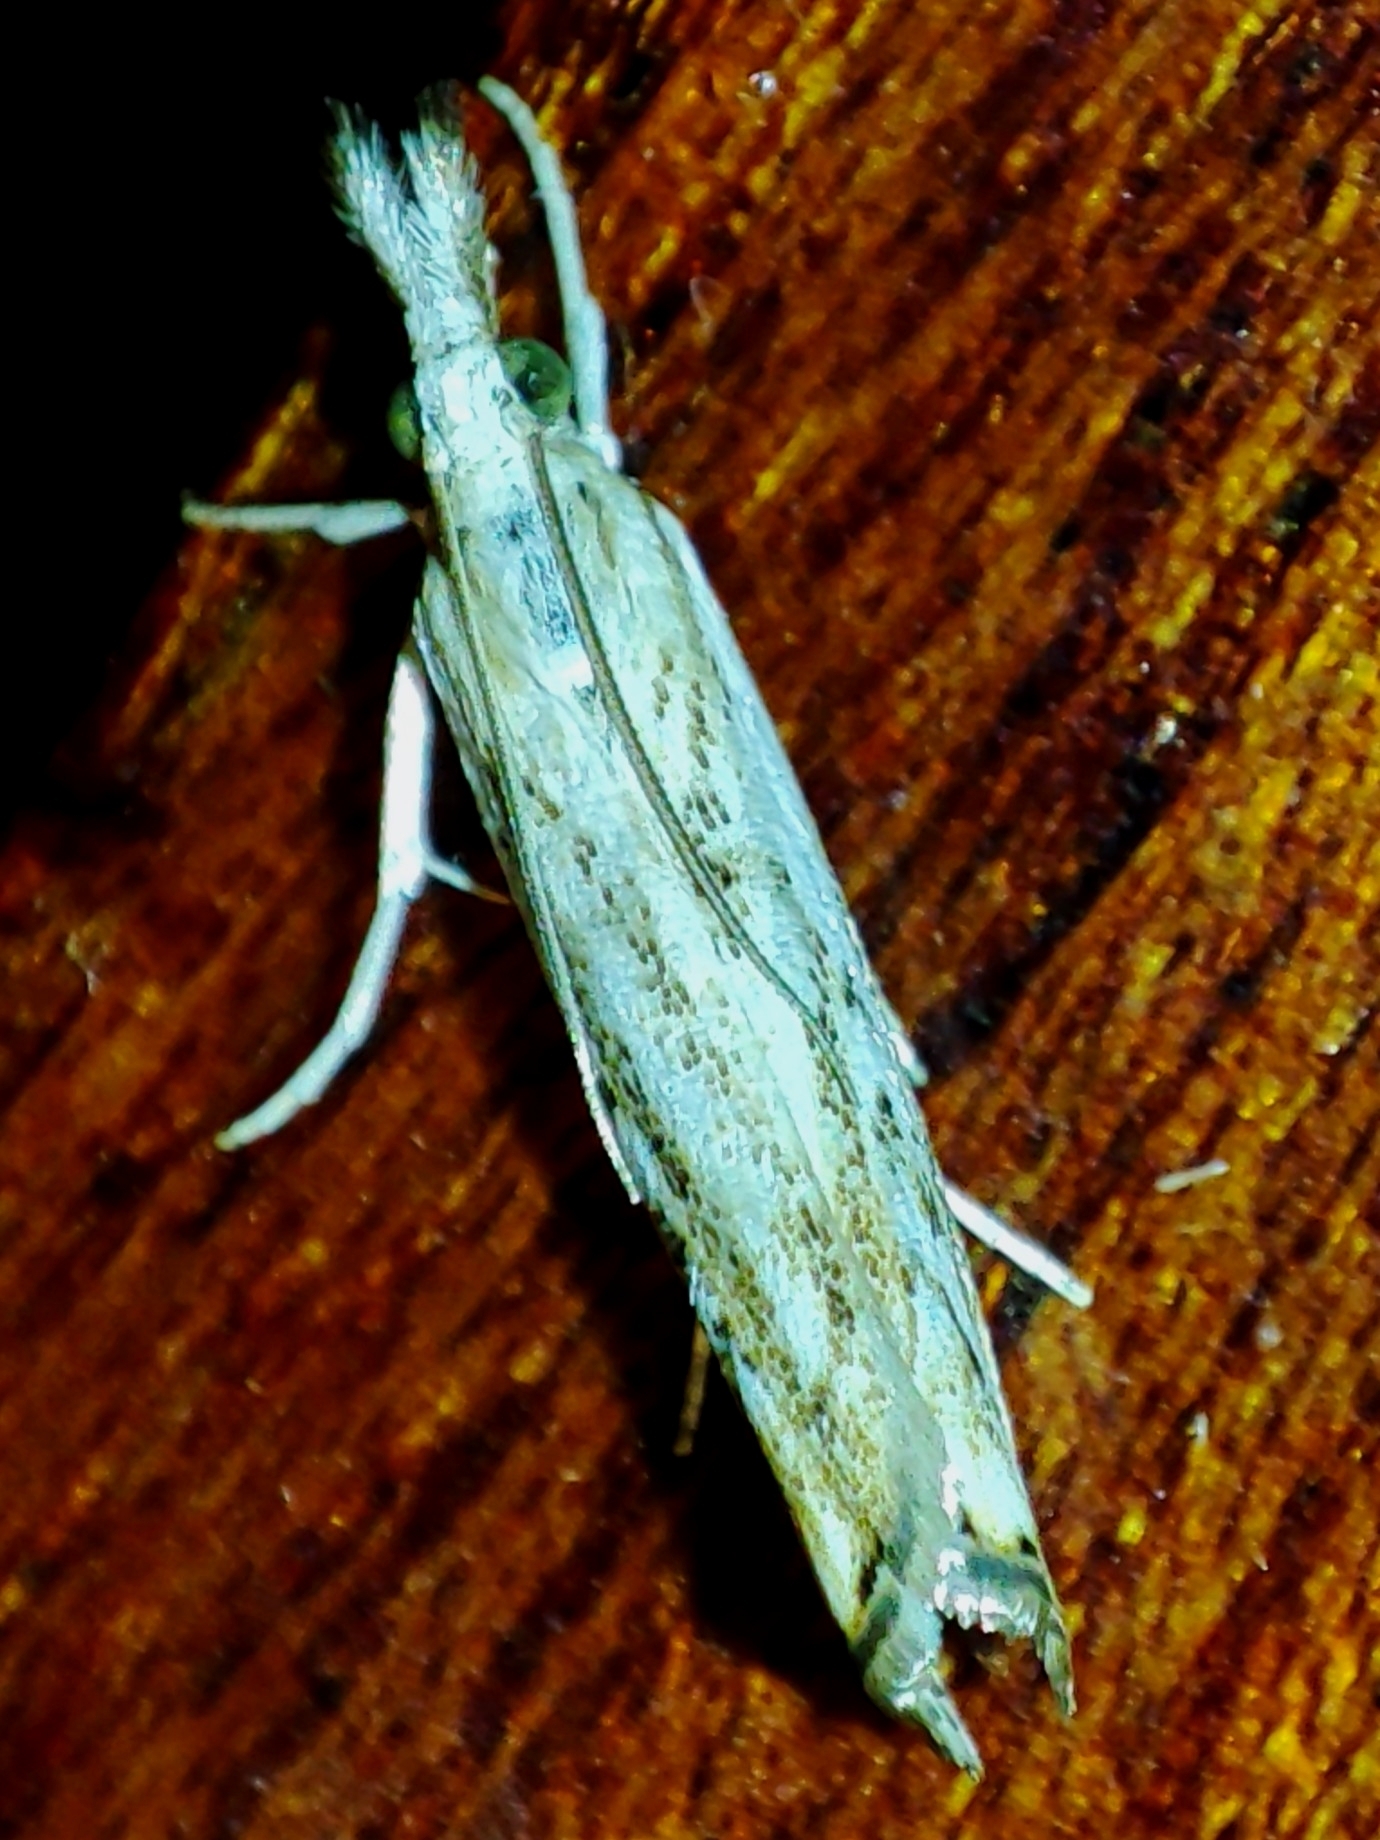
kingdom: Animalia
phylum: Arthropoda
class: Insecta
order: Lepidoptera
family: Crambidae
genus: Catoptria
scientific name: Catoptria falsella
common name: Chequered grass-veneer
